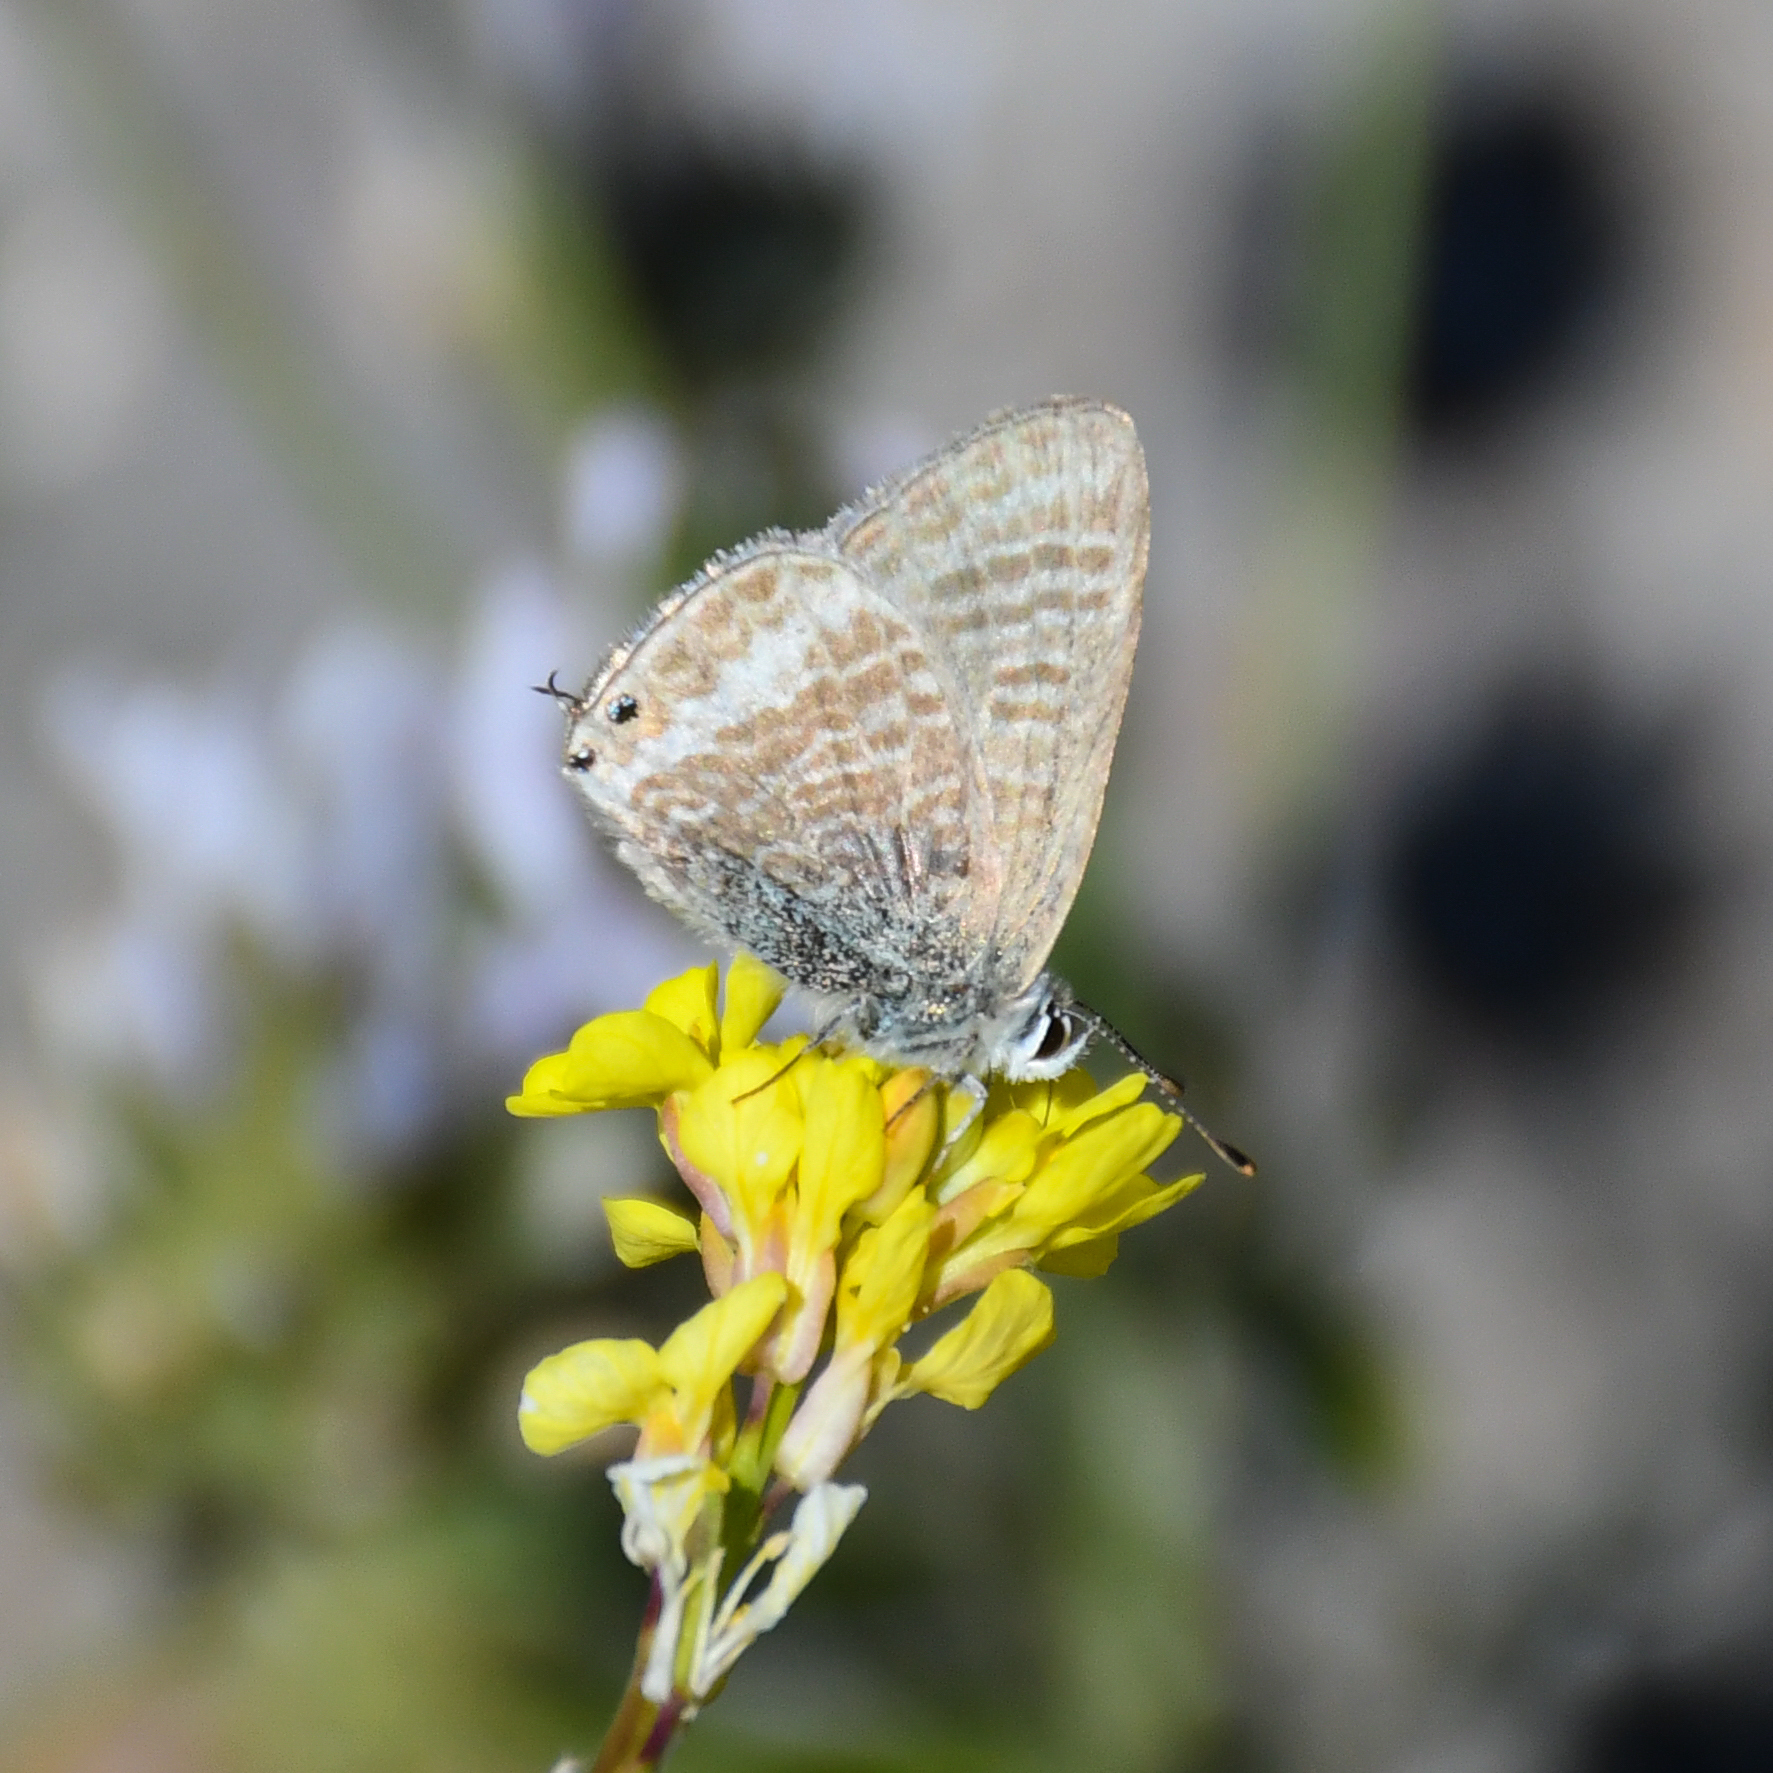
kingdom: Animalia
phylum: Arthropoda
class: Insecta
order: Lepidoptera
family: Lycaenidae
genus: Lampides
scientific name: Lampides boeticus
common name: Long-tailed blue
